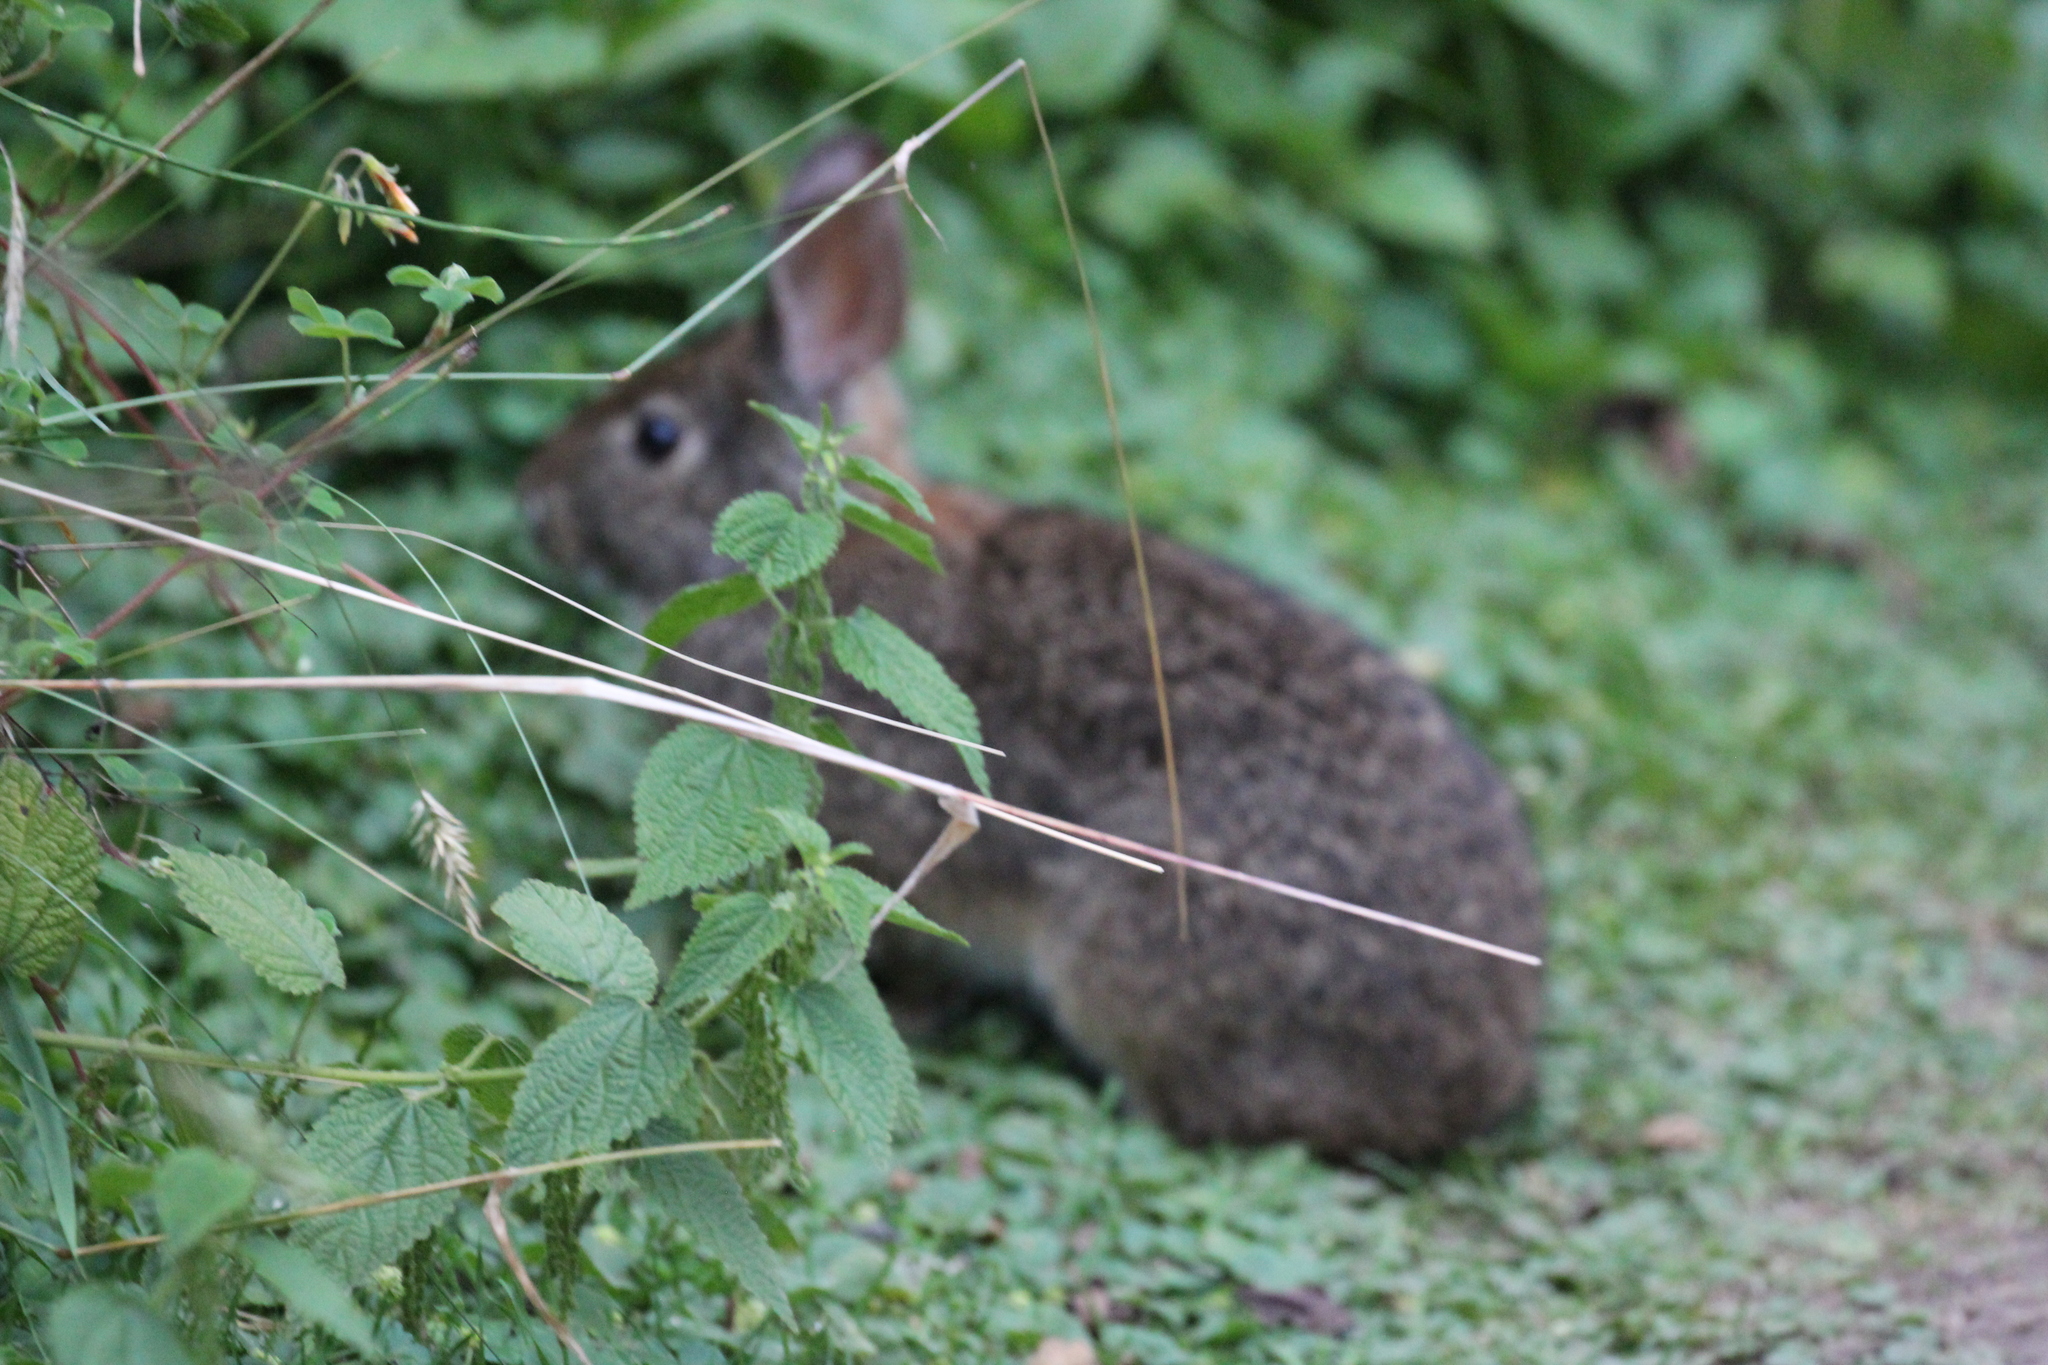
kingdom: Animalia
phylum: Chordata
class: Mammalia
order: Lagomorpha
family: Leporidae
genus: Sylvilagus
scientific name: Sylvilagus andinus
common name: Andean cottontail
